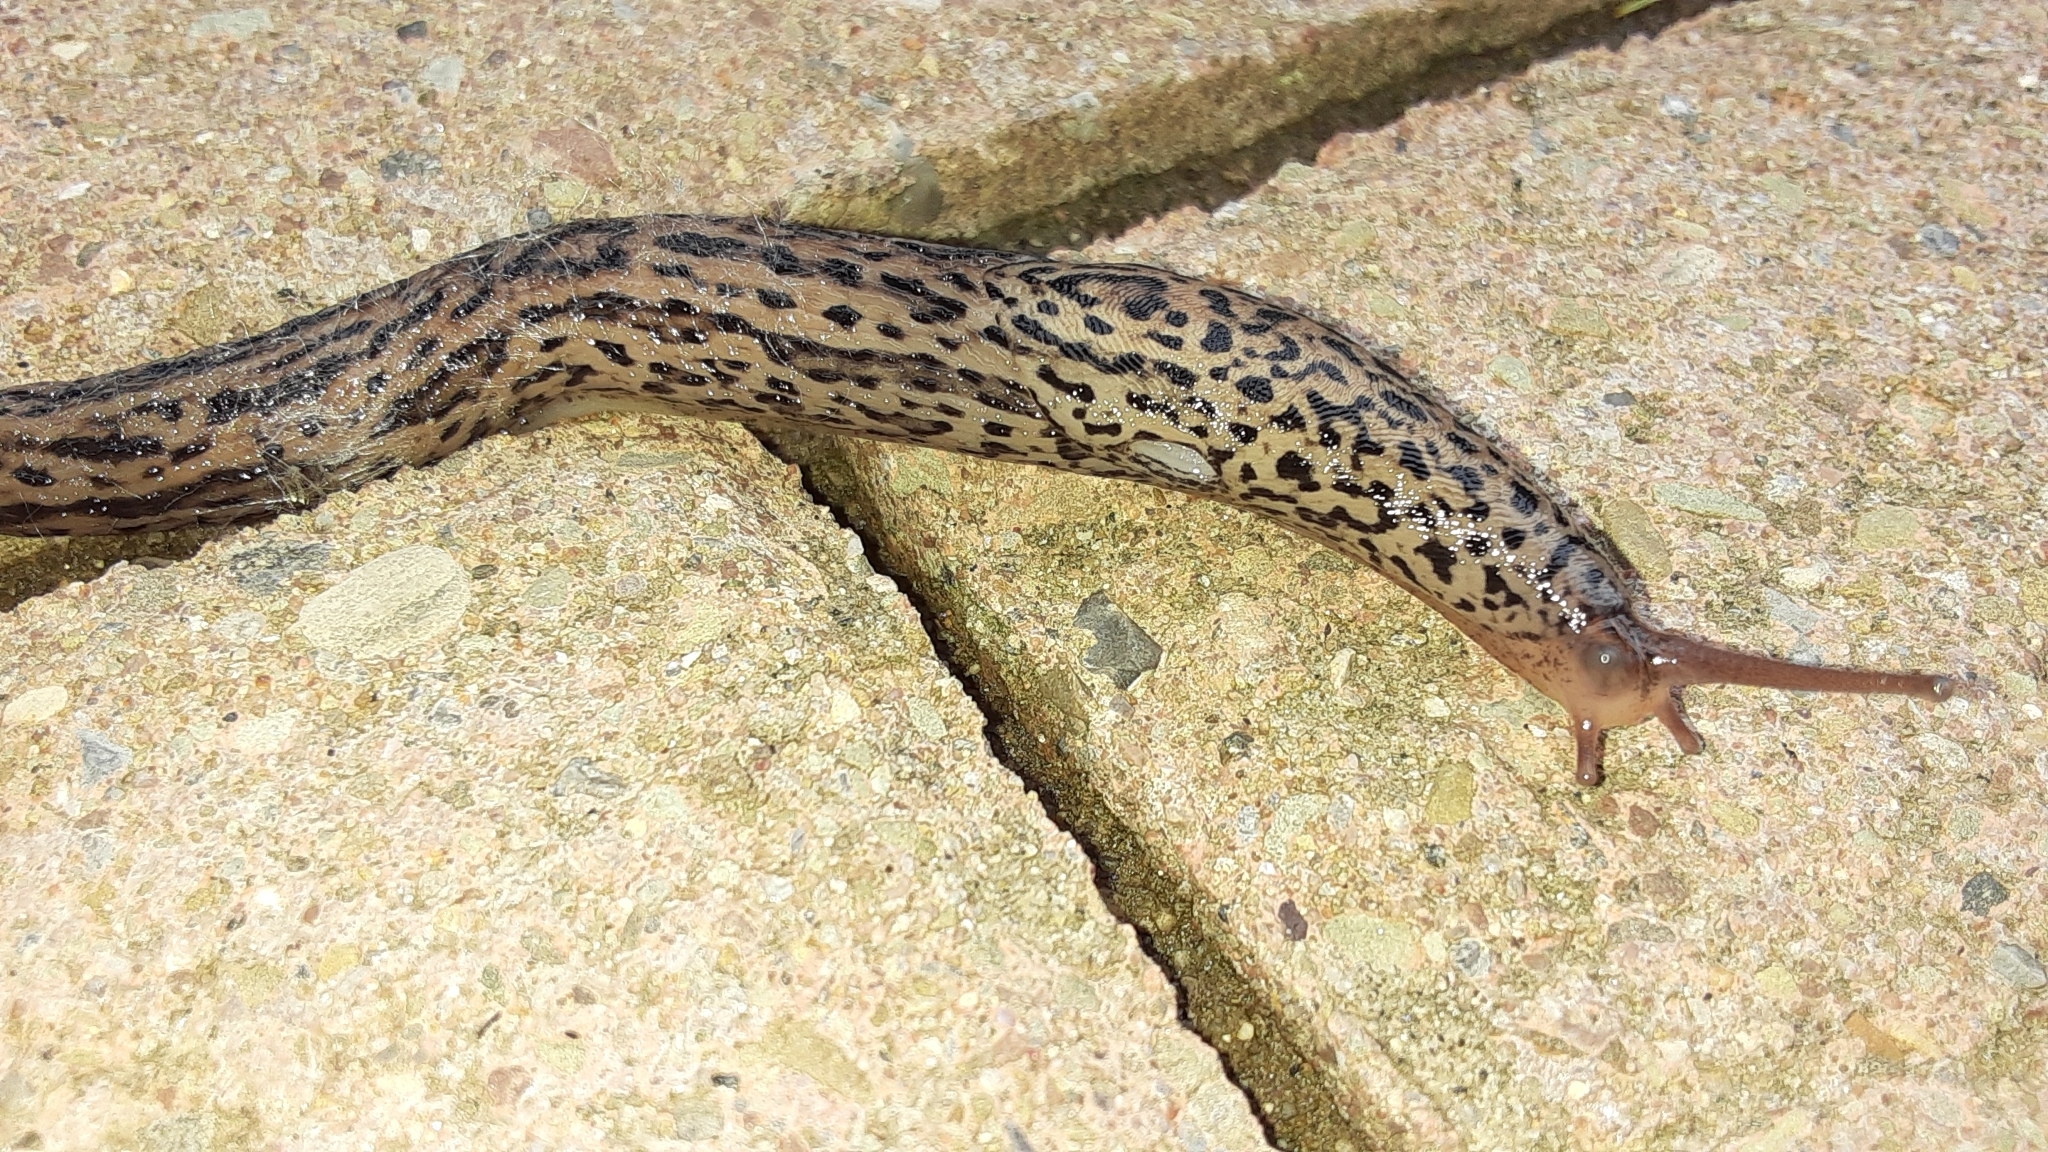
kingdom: Animalia
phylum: Mollusca
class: Gastropoda
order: Stylommatophora
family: Limacidae
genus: Limax
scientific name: Limax maximus
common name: Great grey slug
